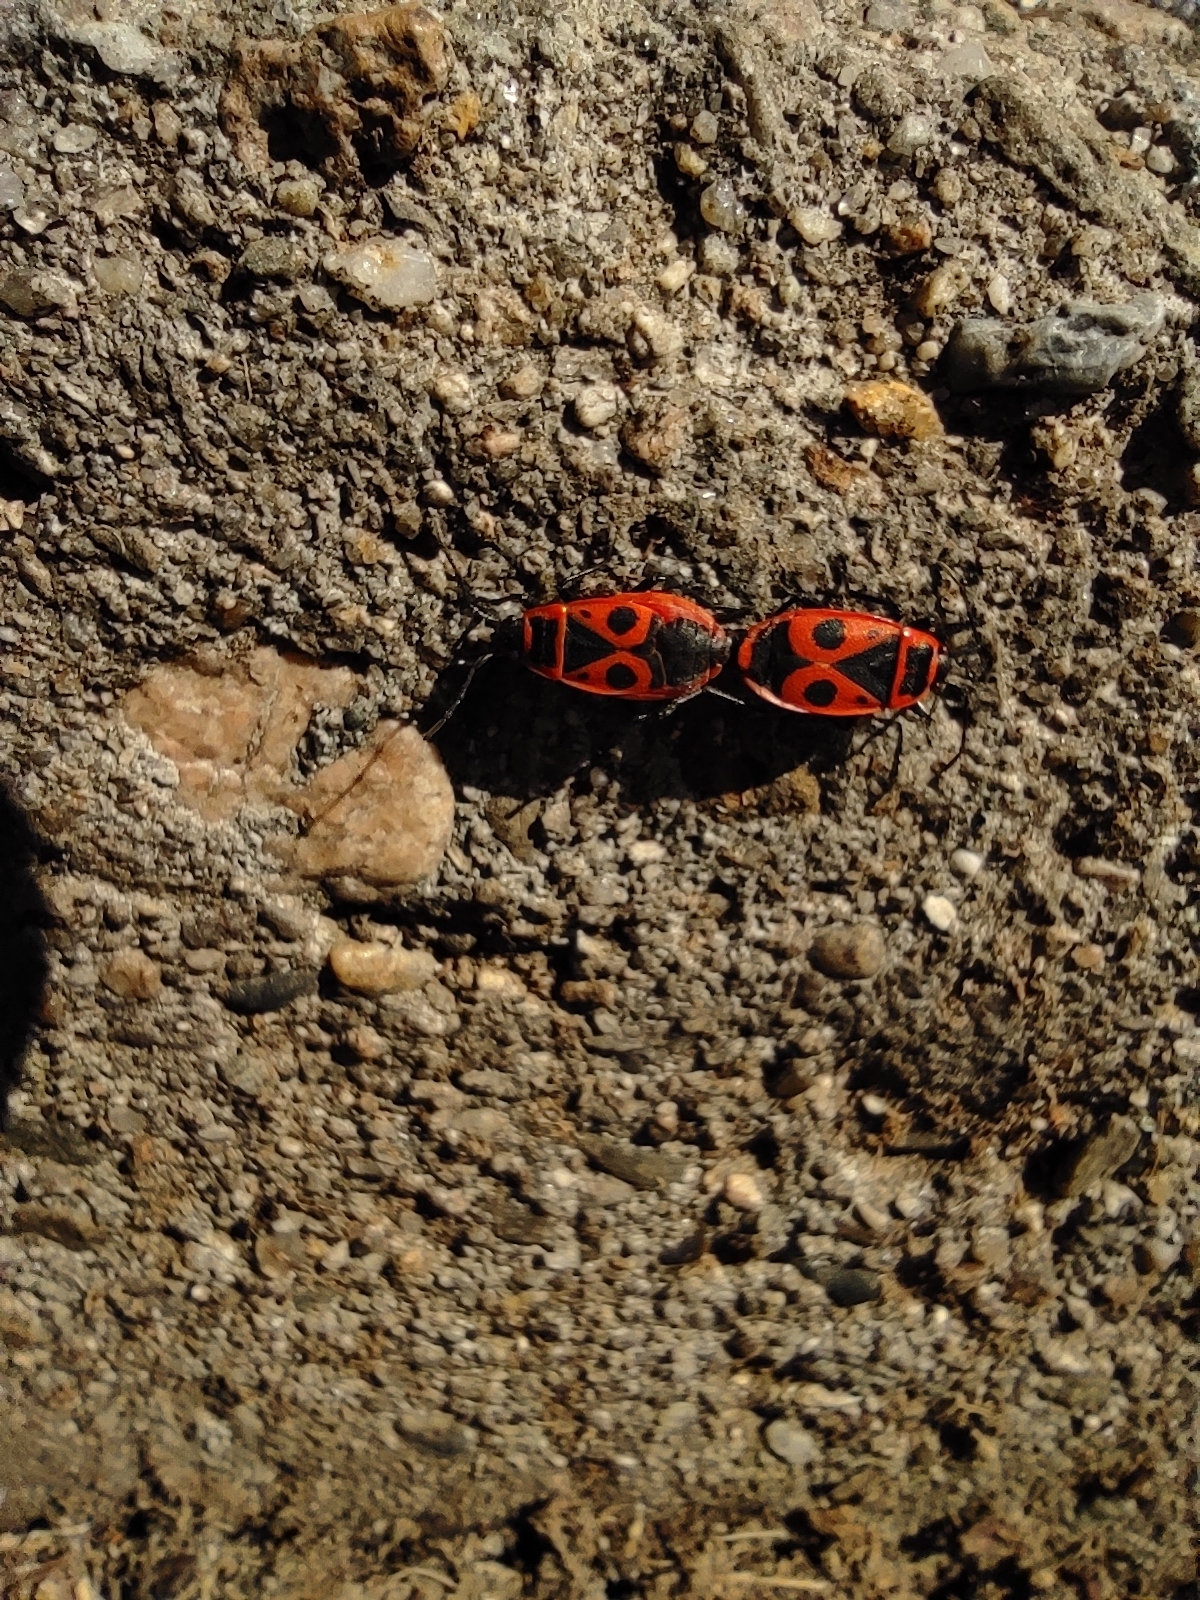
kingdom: Animalia
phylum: Arthropoda
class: Insecta
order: Hemiptera
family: Pyrrhocoridae
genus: Pyrrhocoris
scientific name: Pyrrhocoris apterus
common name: Firebug
